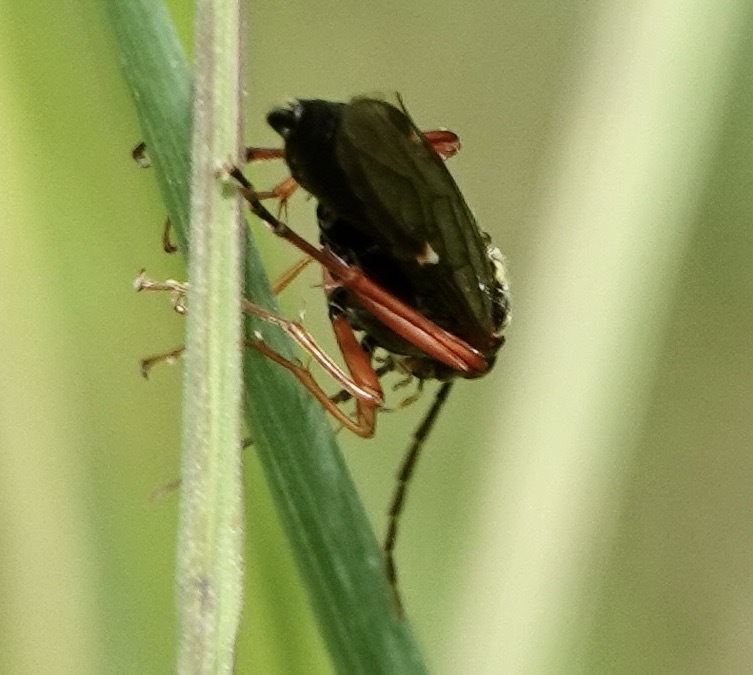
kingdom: Animalia
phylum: Arthropoda
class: Insecta
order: Hymenoptera
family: Tenthredinidae
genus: Tenthredopsis
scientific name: Tenthredopsis litterata
